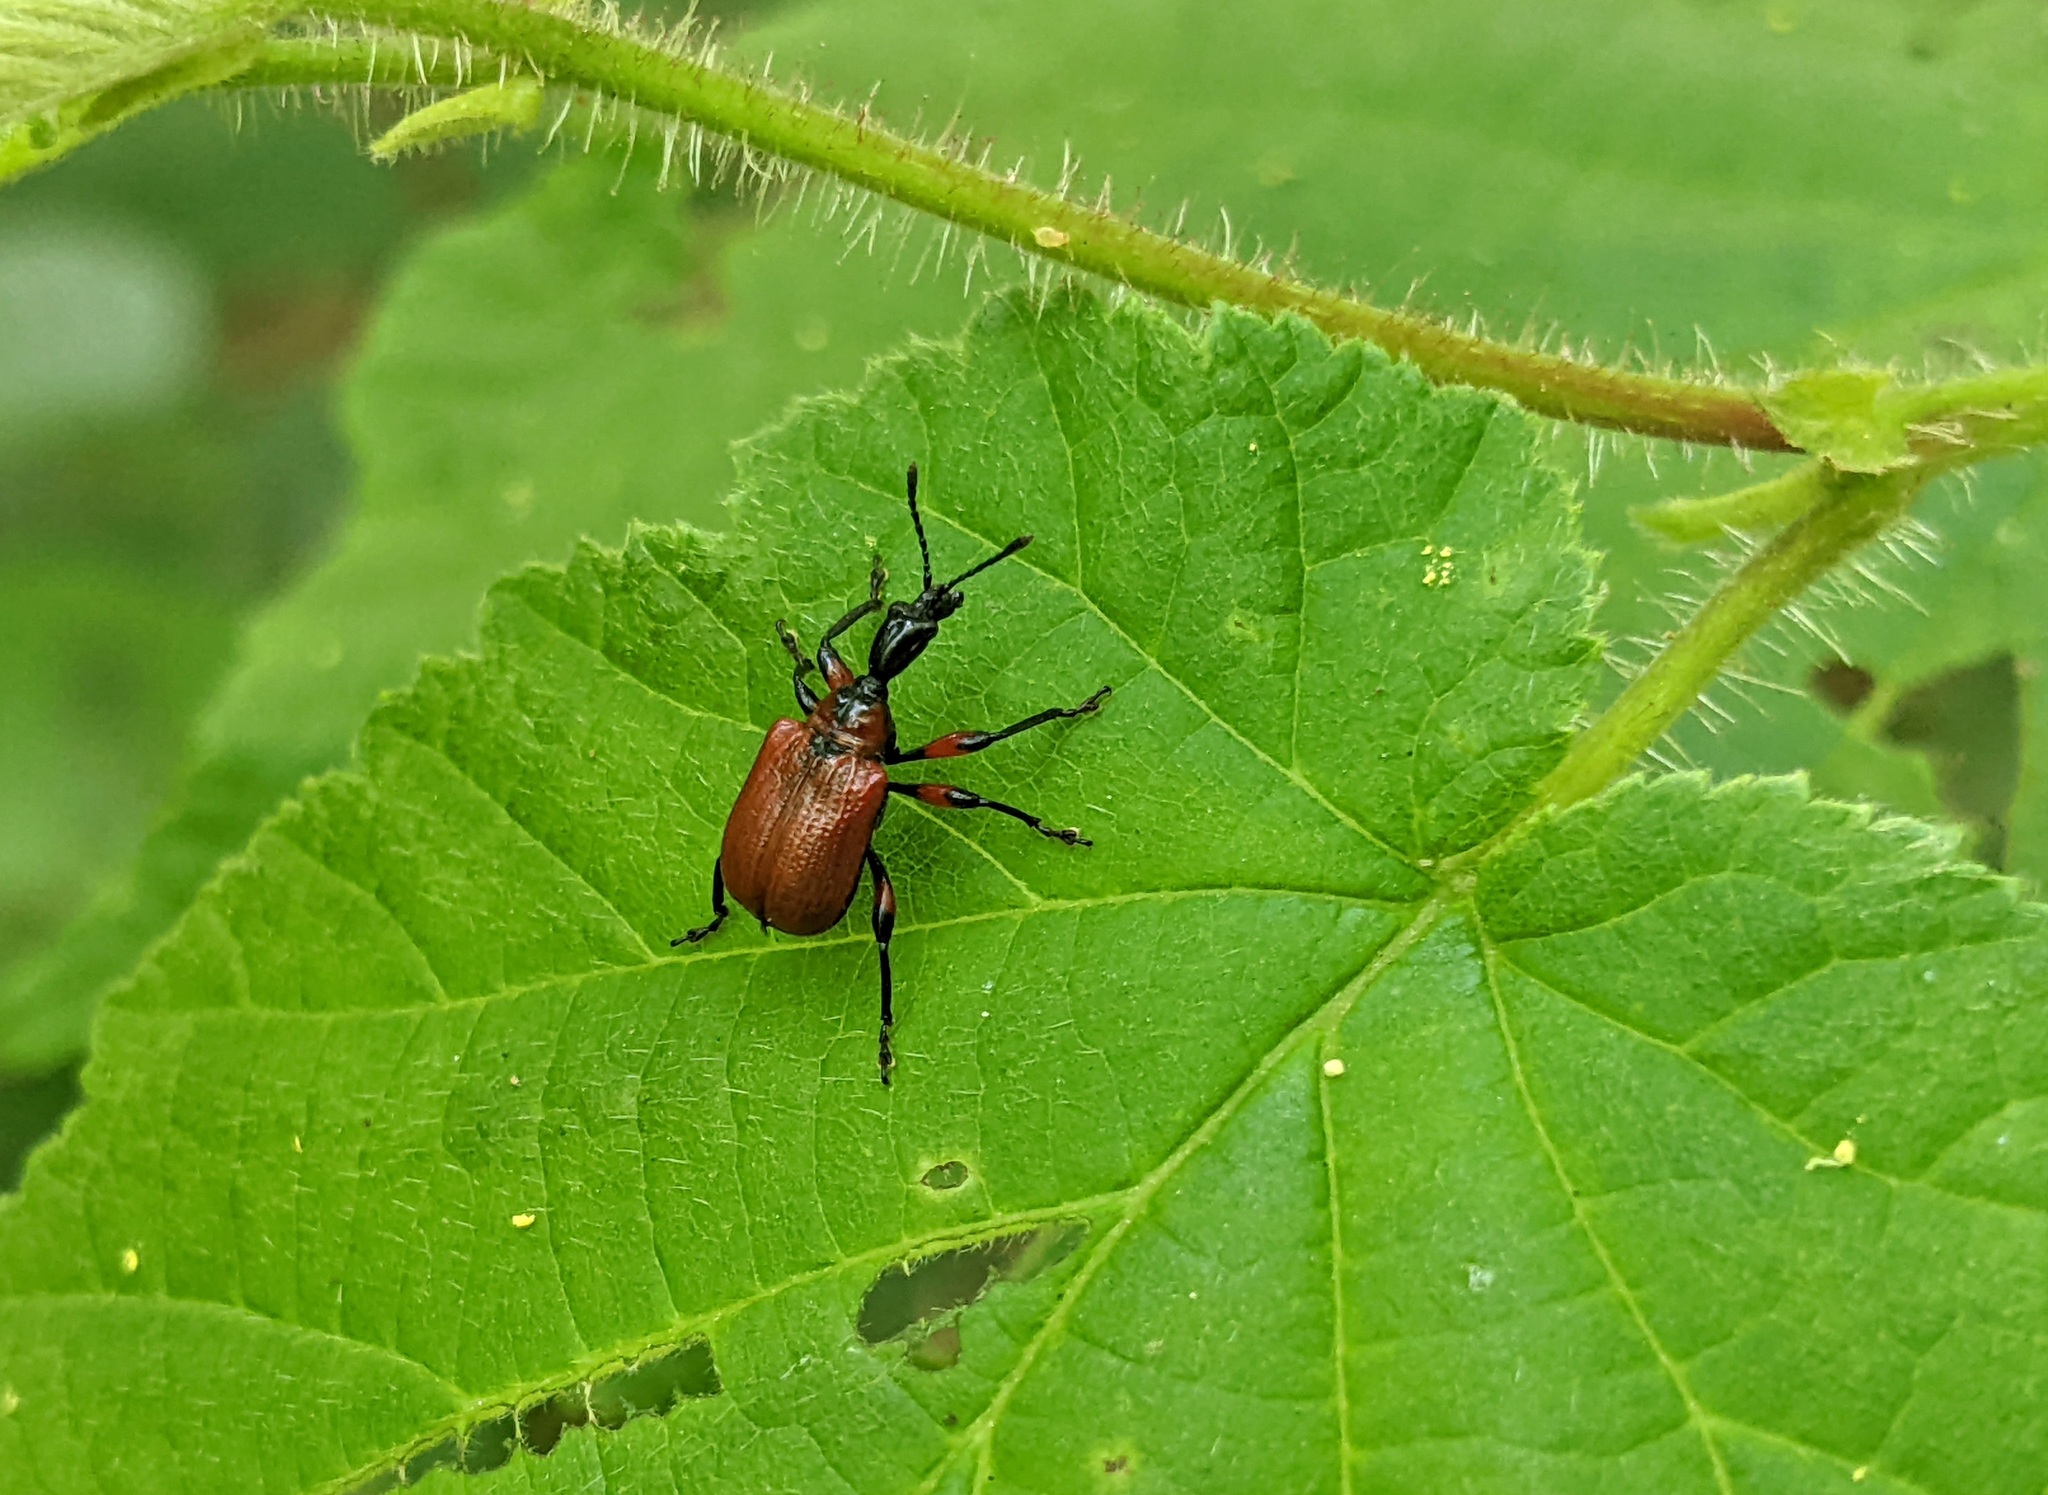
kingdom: Animalia
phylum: Arthropoda
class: Insecta
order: Coleoptera
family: Attelabidae
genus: Apoderus
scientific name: Apoderus coryli
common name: Hazel leaf roller
